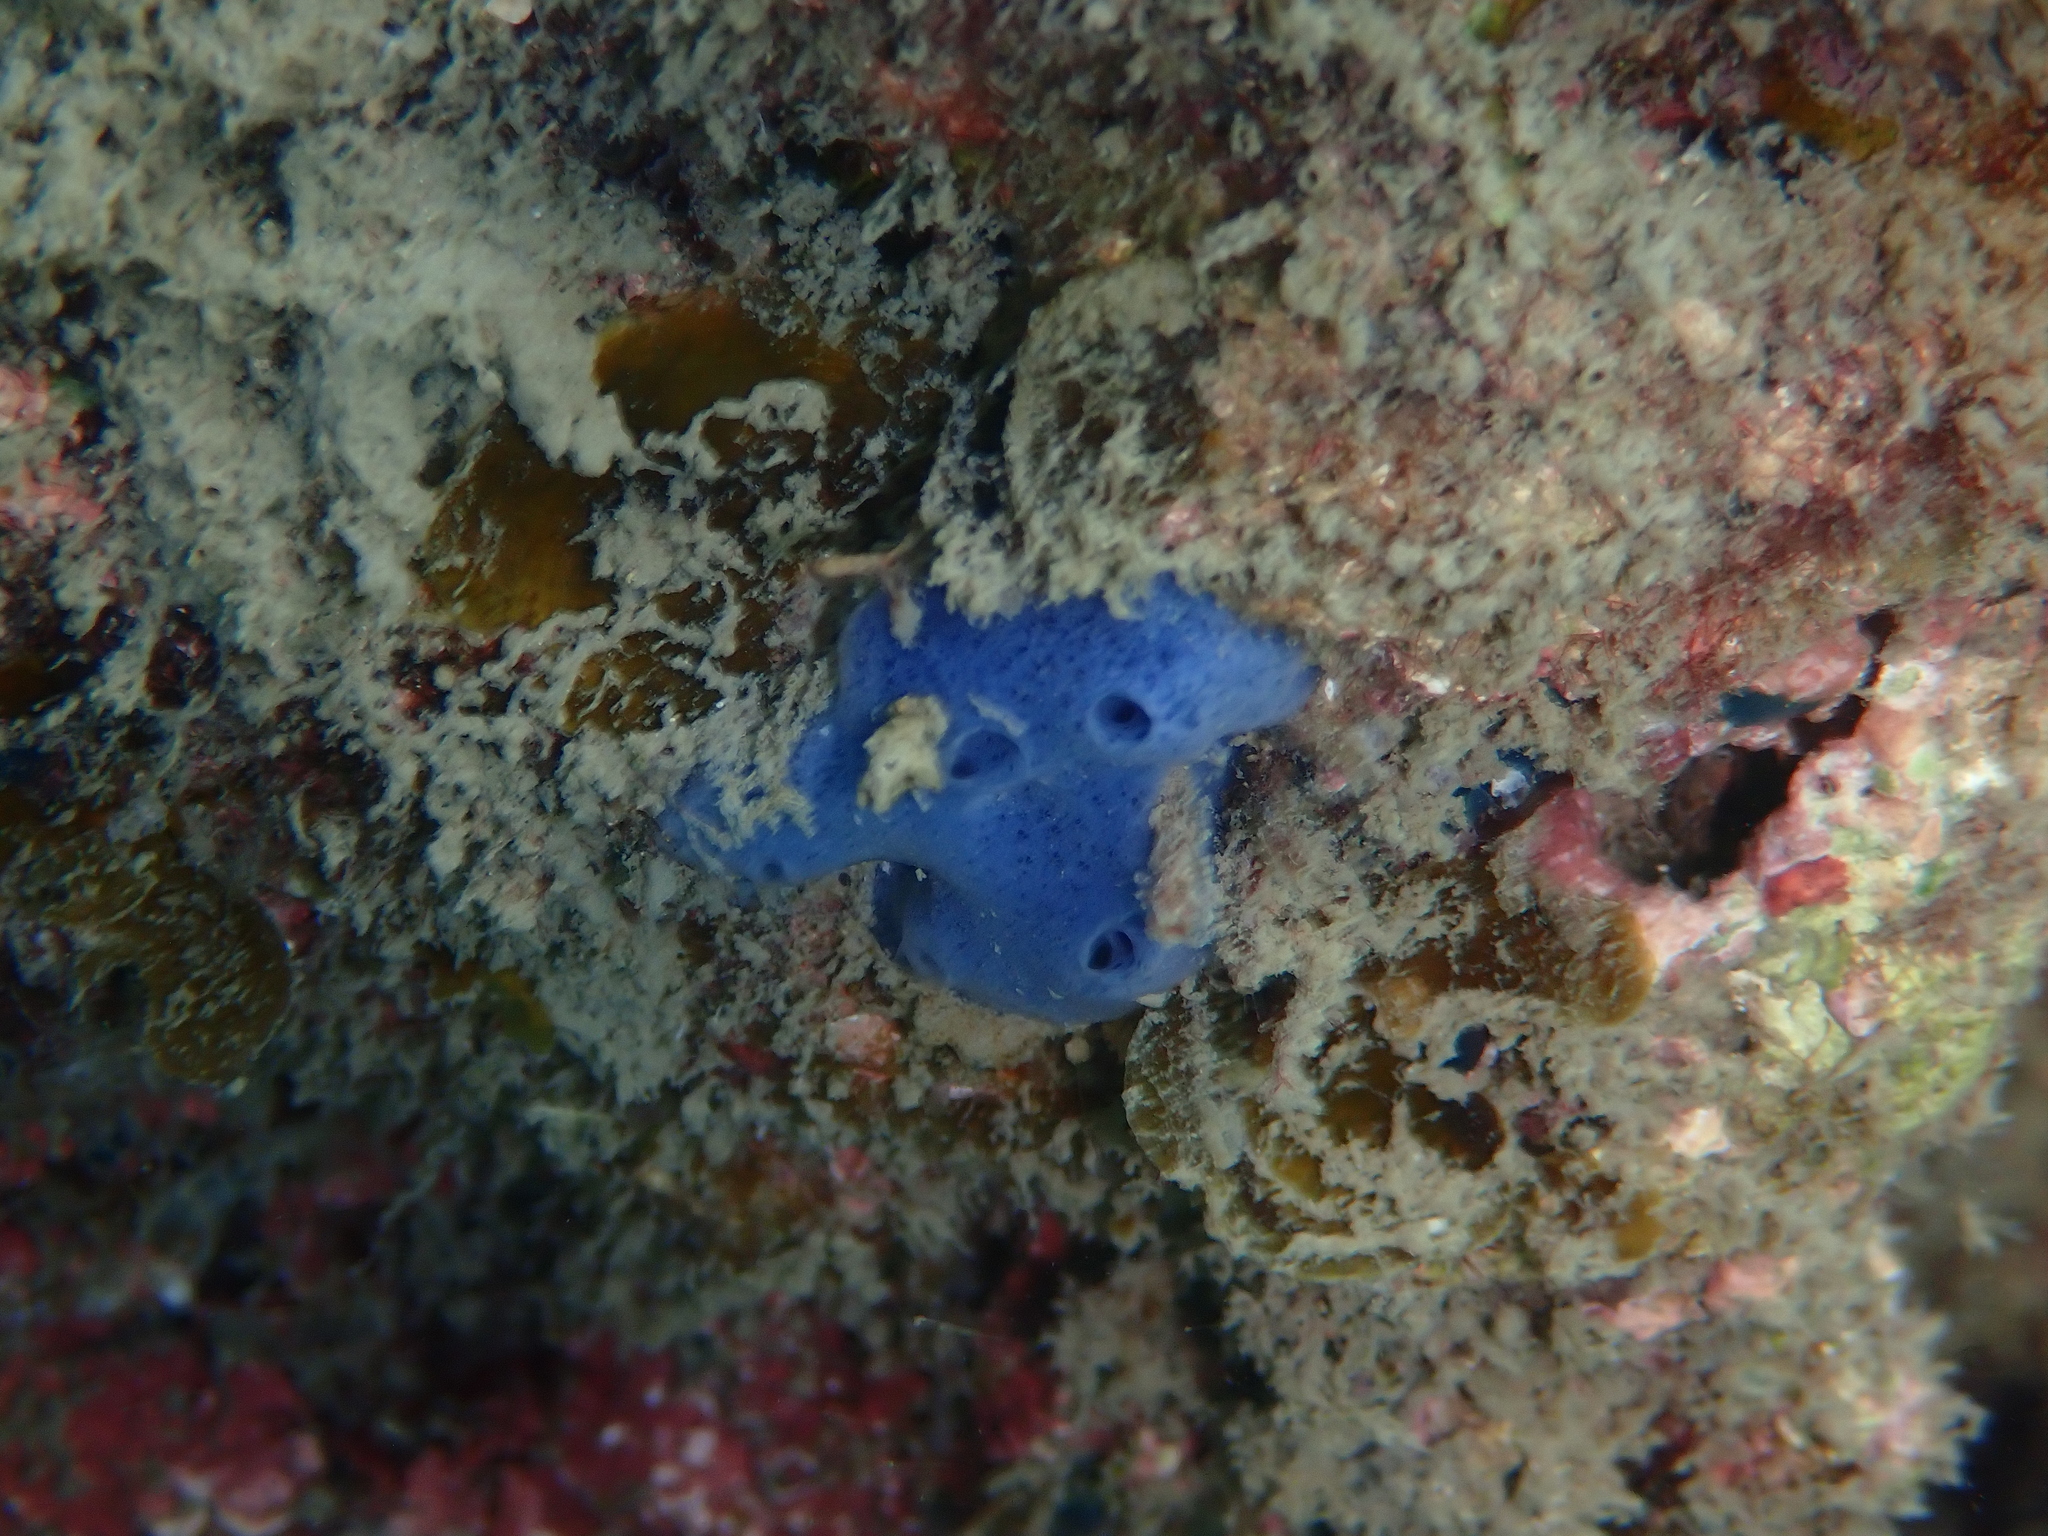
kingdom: Animalia
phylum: Porifera
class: Demospongiae
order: Haplosclerida
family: Niphatidae
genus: Amphimedon
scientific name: Amphimedon queenslandica
